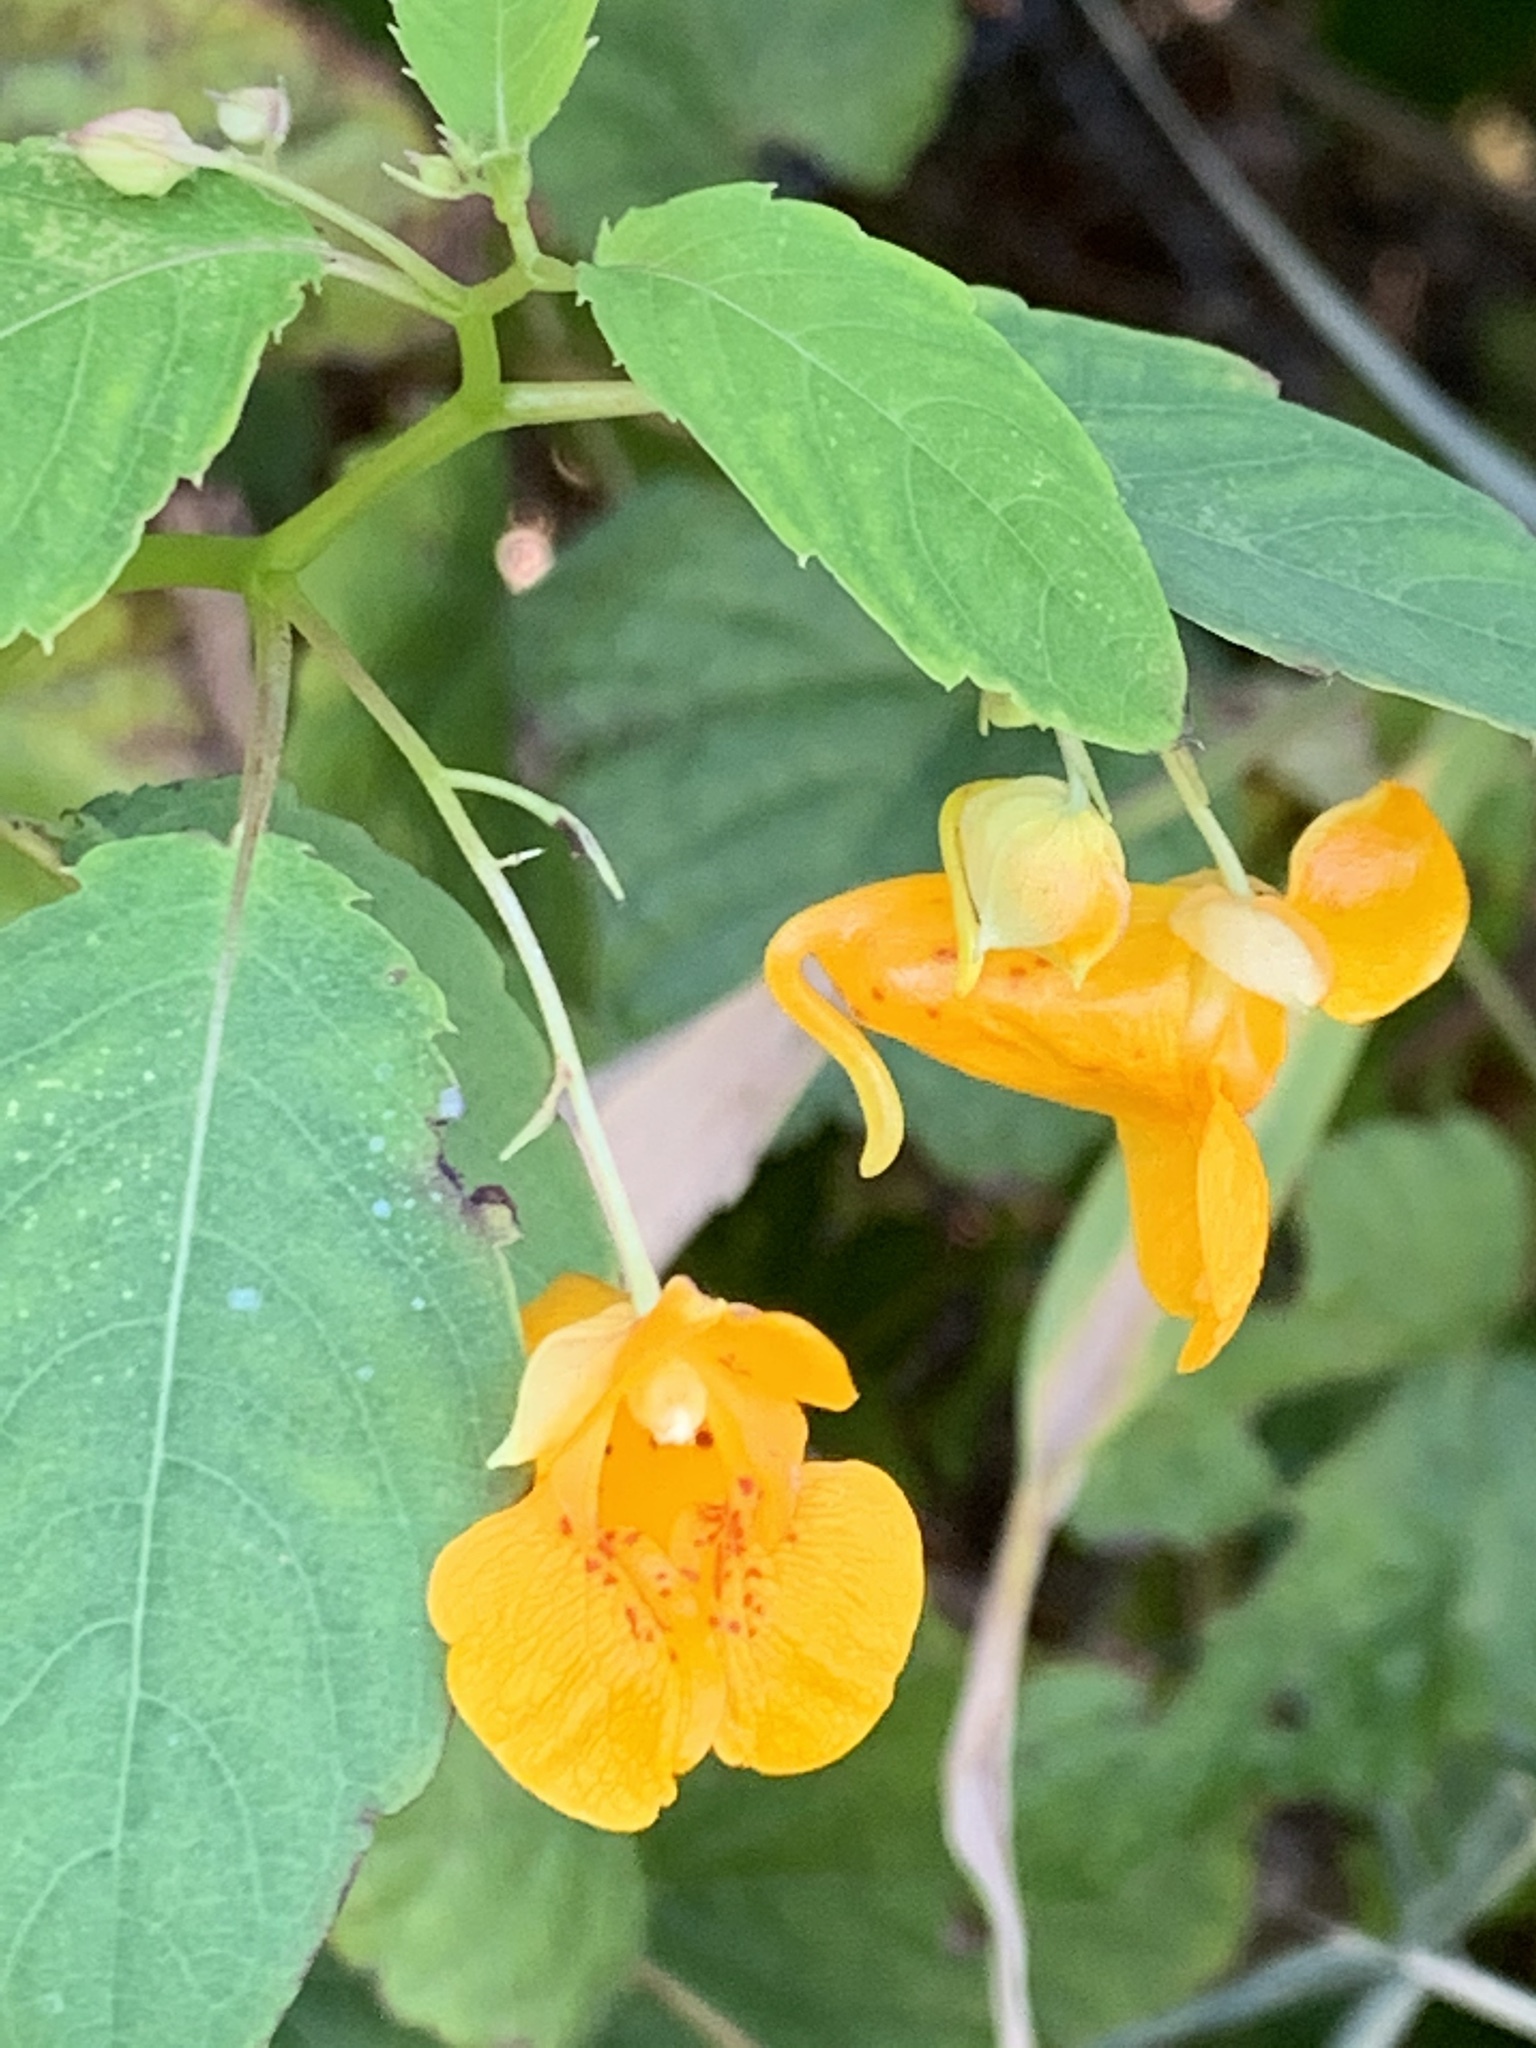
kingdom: Plantae
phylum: Tracheophyta
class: Magnoliopsida
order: Ericales
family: Balsaminaceae
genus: Impatiens
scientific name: Impatiens capensis
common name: Orange balsam
